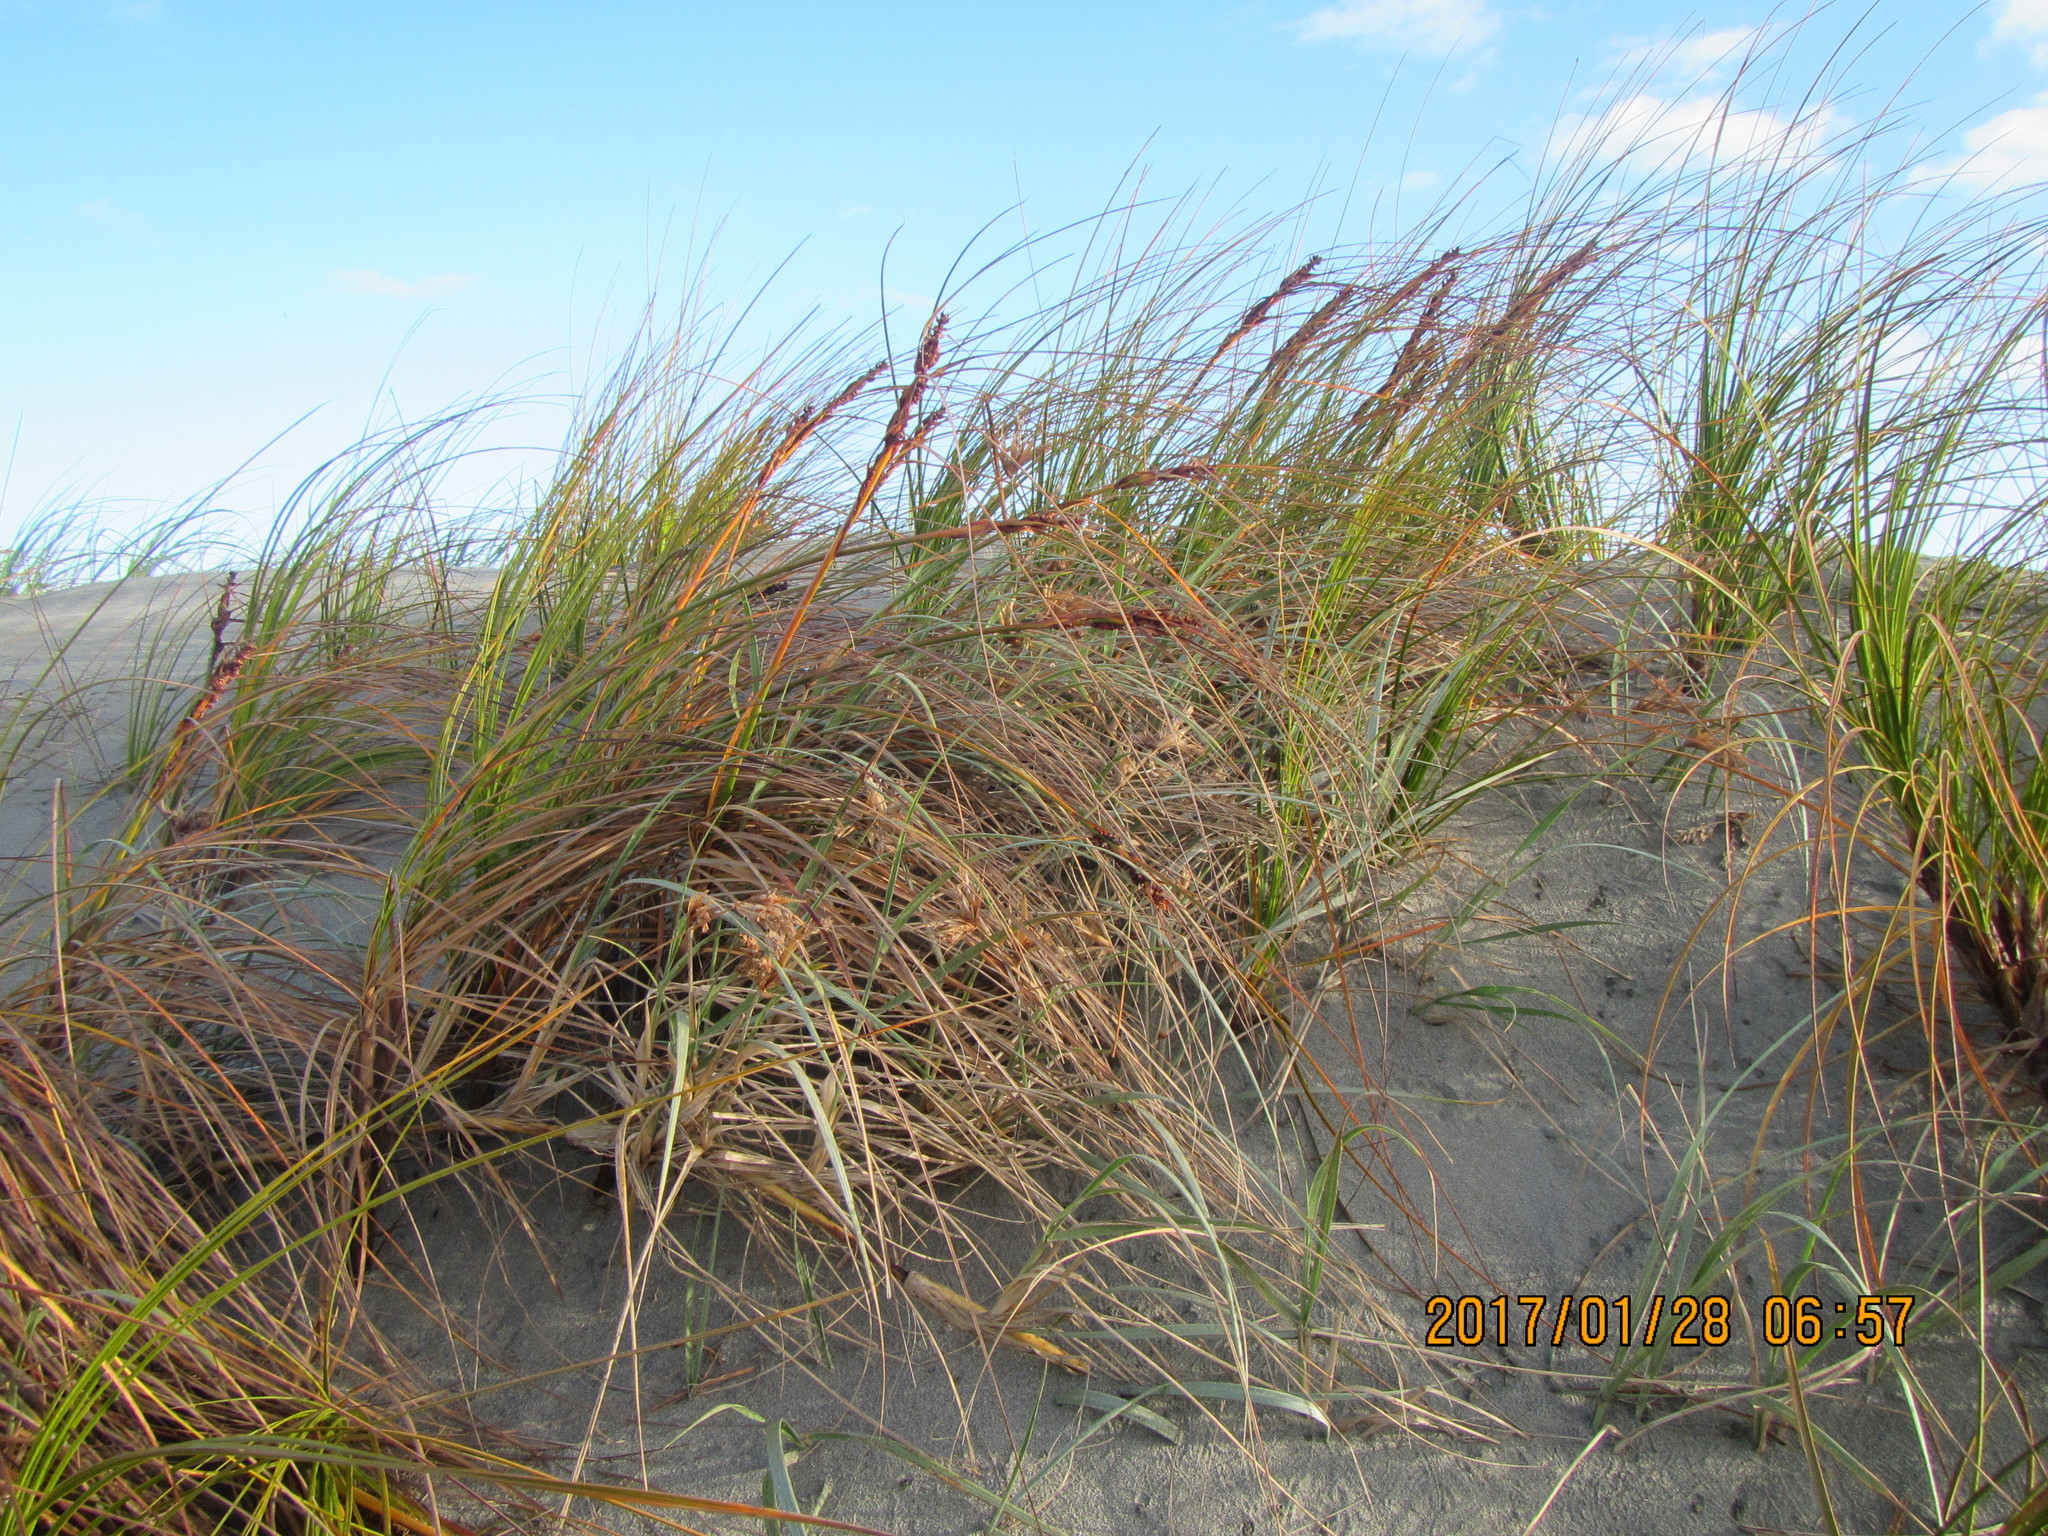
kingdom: Plantae
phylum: Tracheophyta
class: Liliopsida
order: Poales
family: Cyperaceae
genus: Ficinia
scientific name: Ficinia spiralis
